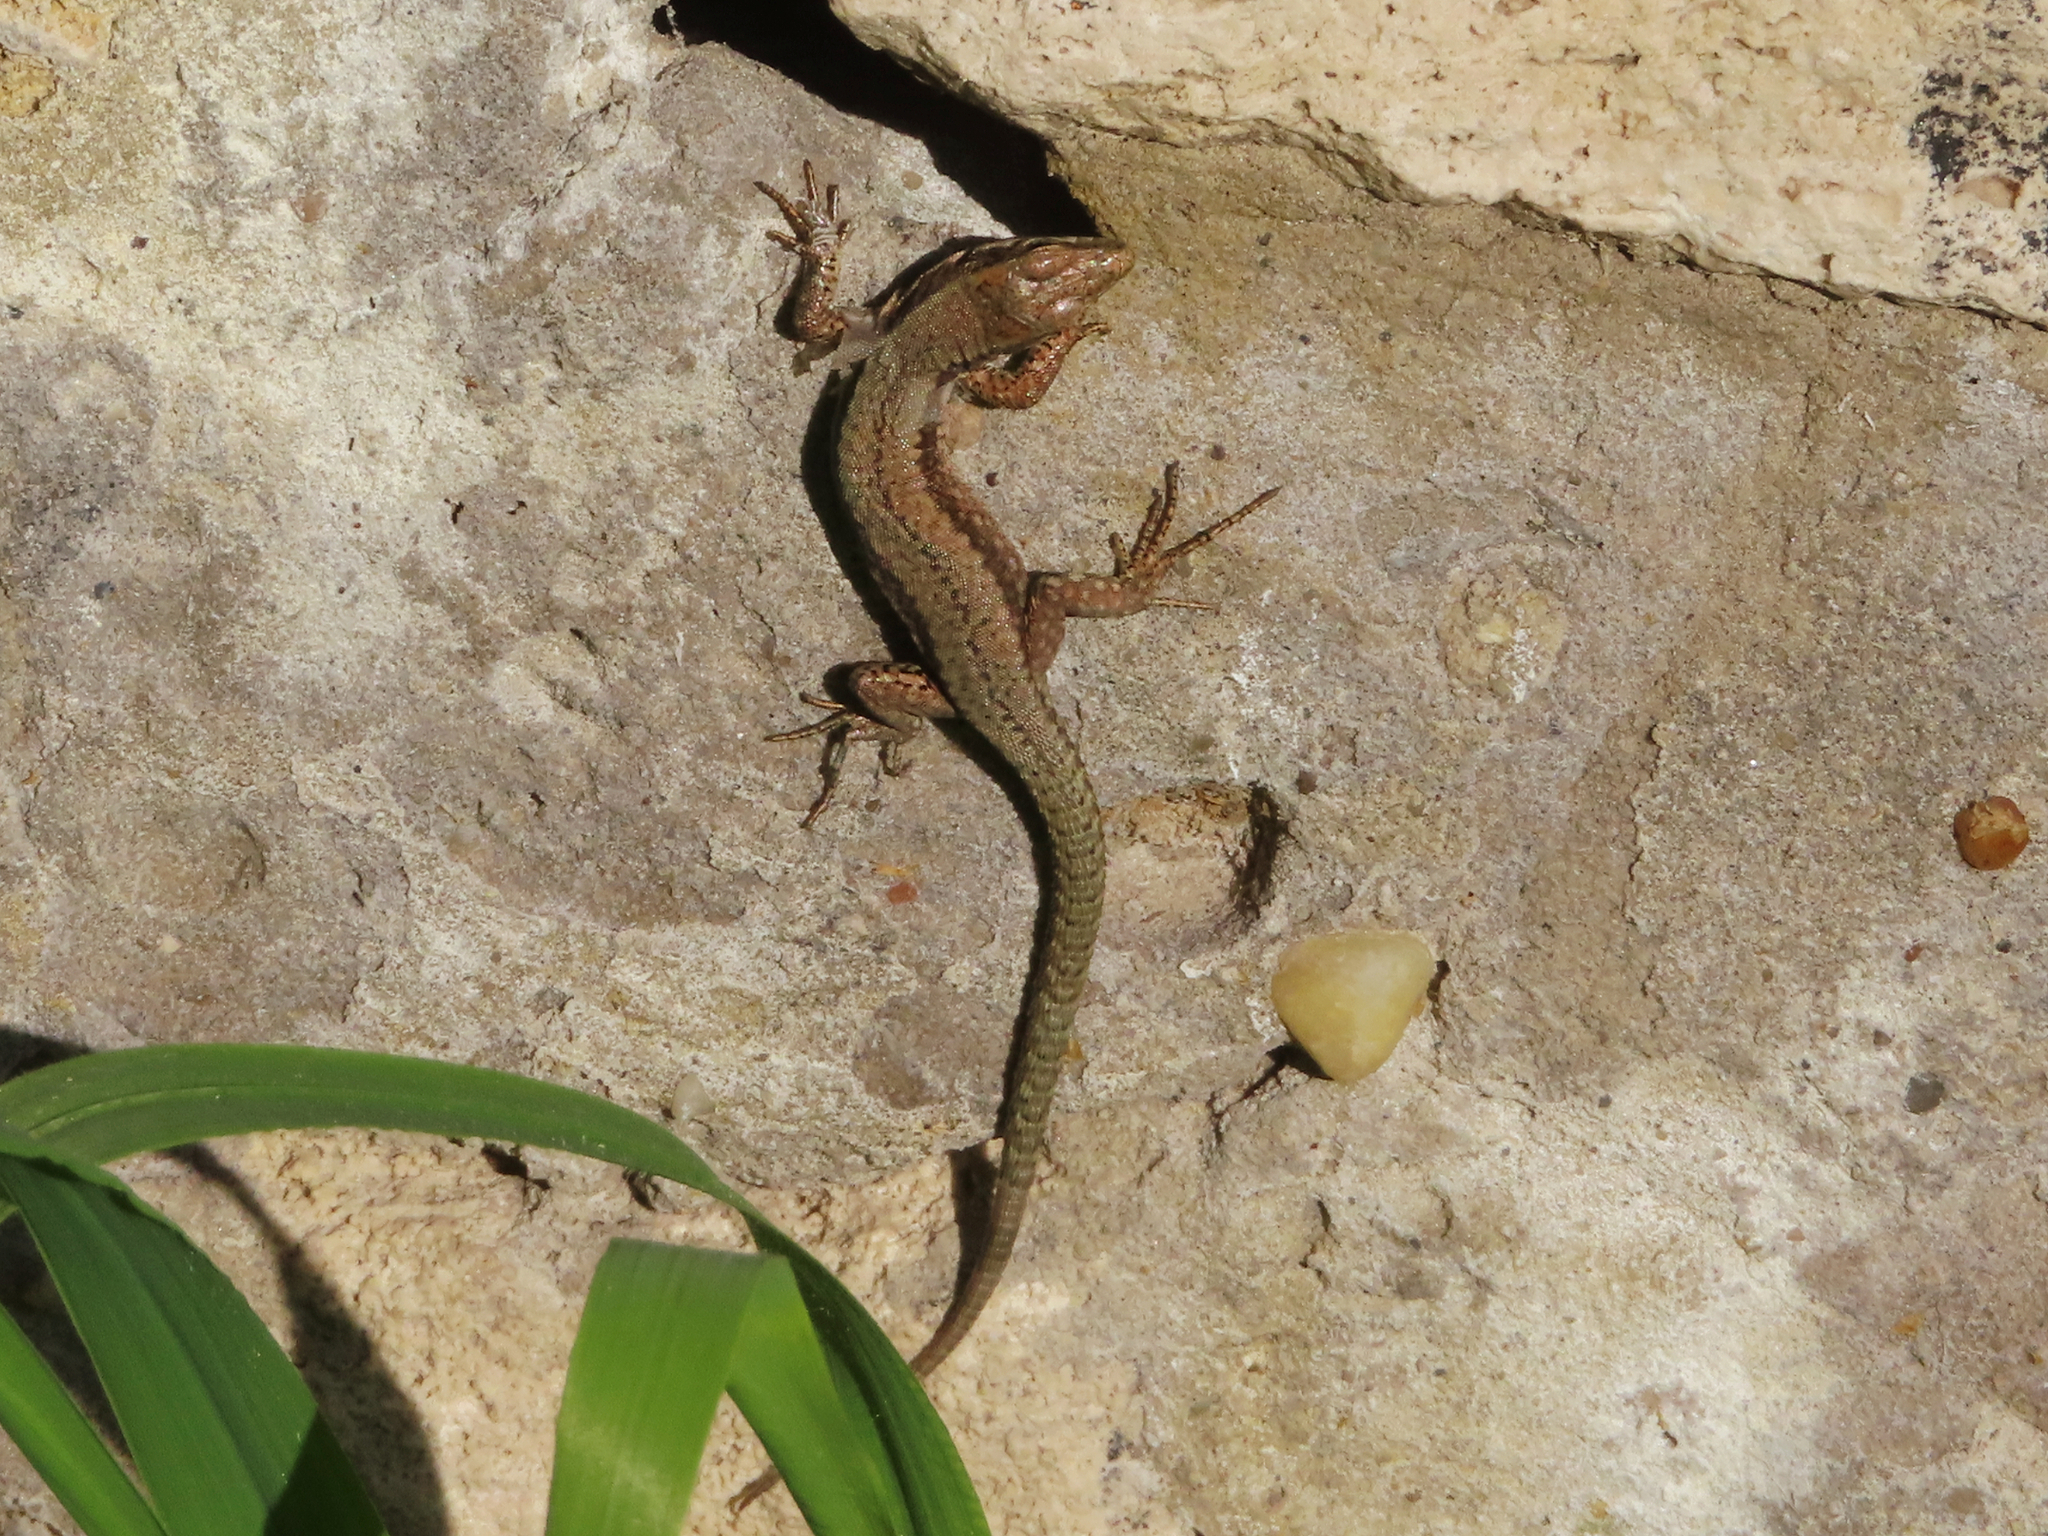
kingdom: Animalia
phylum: Chordata
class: Squamata
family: Lacertidae
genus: Podarcis
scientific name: Podarcis muralis
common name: Common wall lizard
